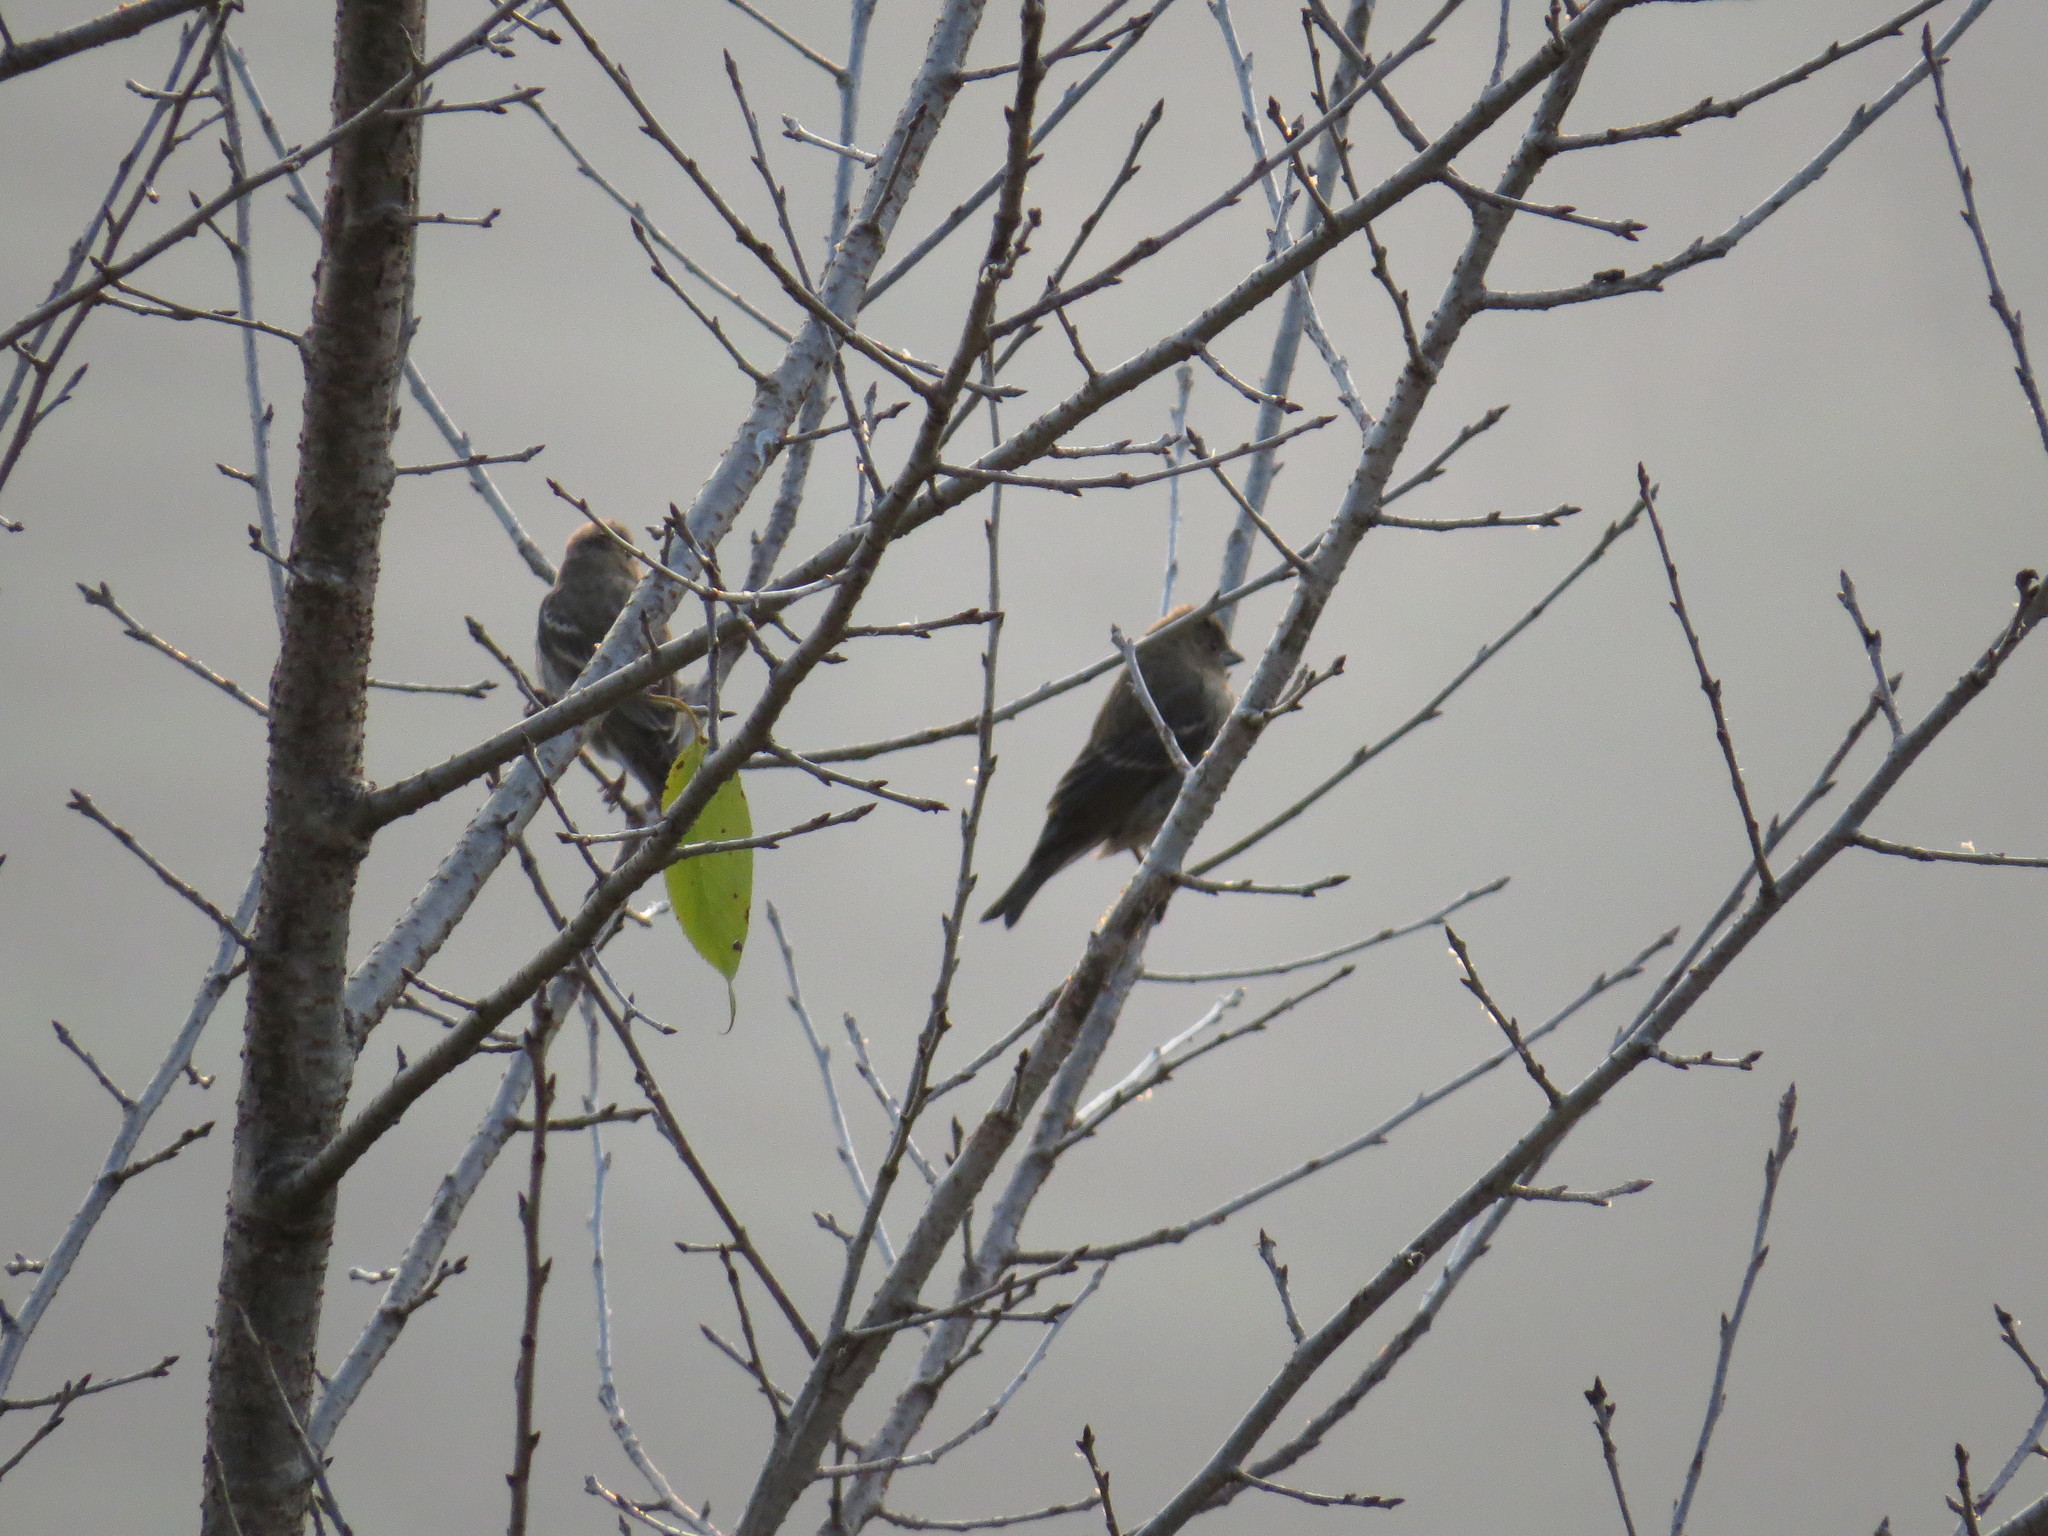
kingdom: Animalia
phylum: Chordata
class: Aves
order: Passeriformes
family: Fringillidae
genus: Carpodacus
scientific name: Carpodacus erythrinus
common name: Common rosefinch
